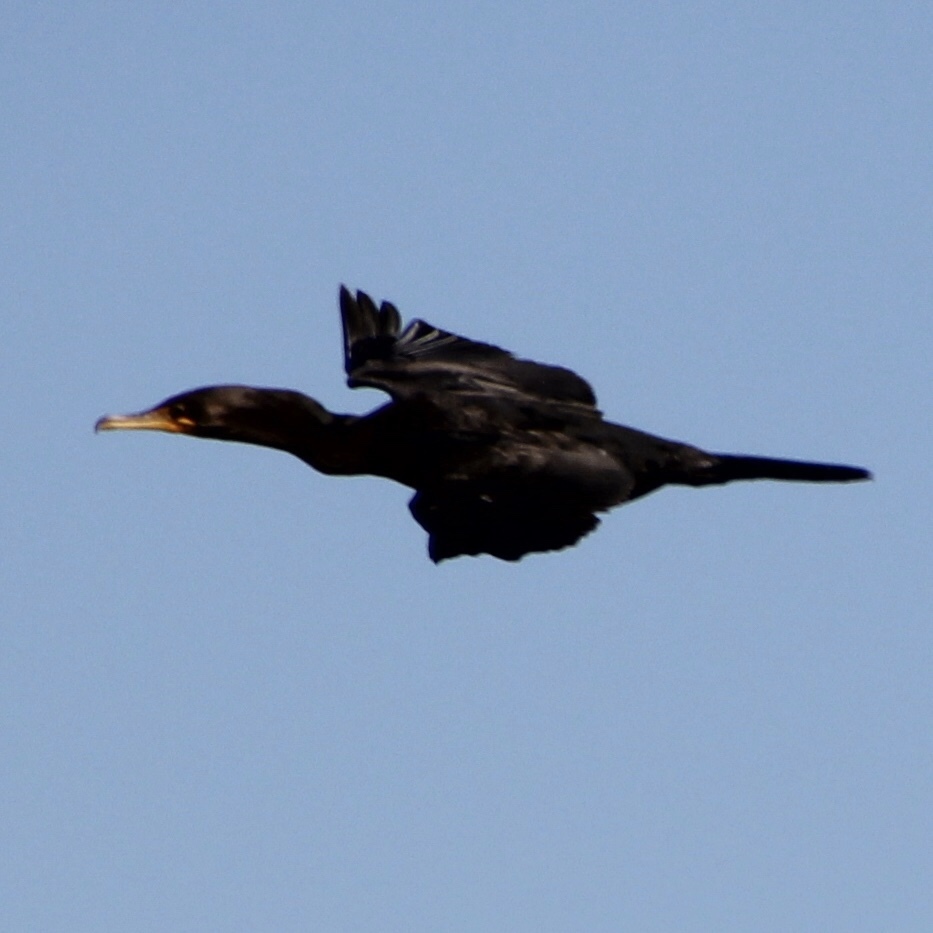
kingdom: Animalia
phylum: Chordata
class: Aves
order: Suliformes
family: Phalacrocoracidae
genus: Phalacrocorax
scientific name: Phalacrocorax auritus
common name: Double-crested cormorant
